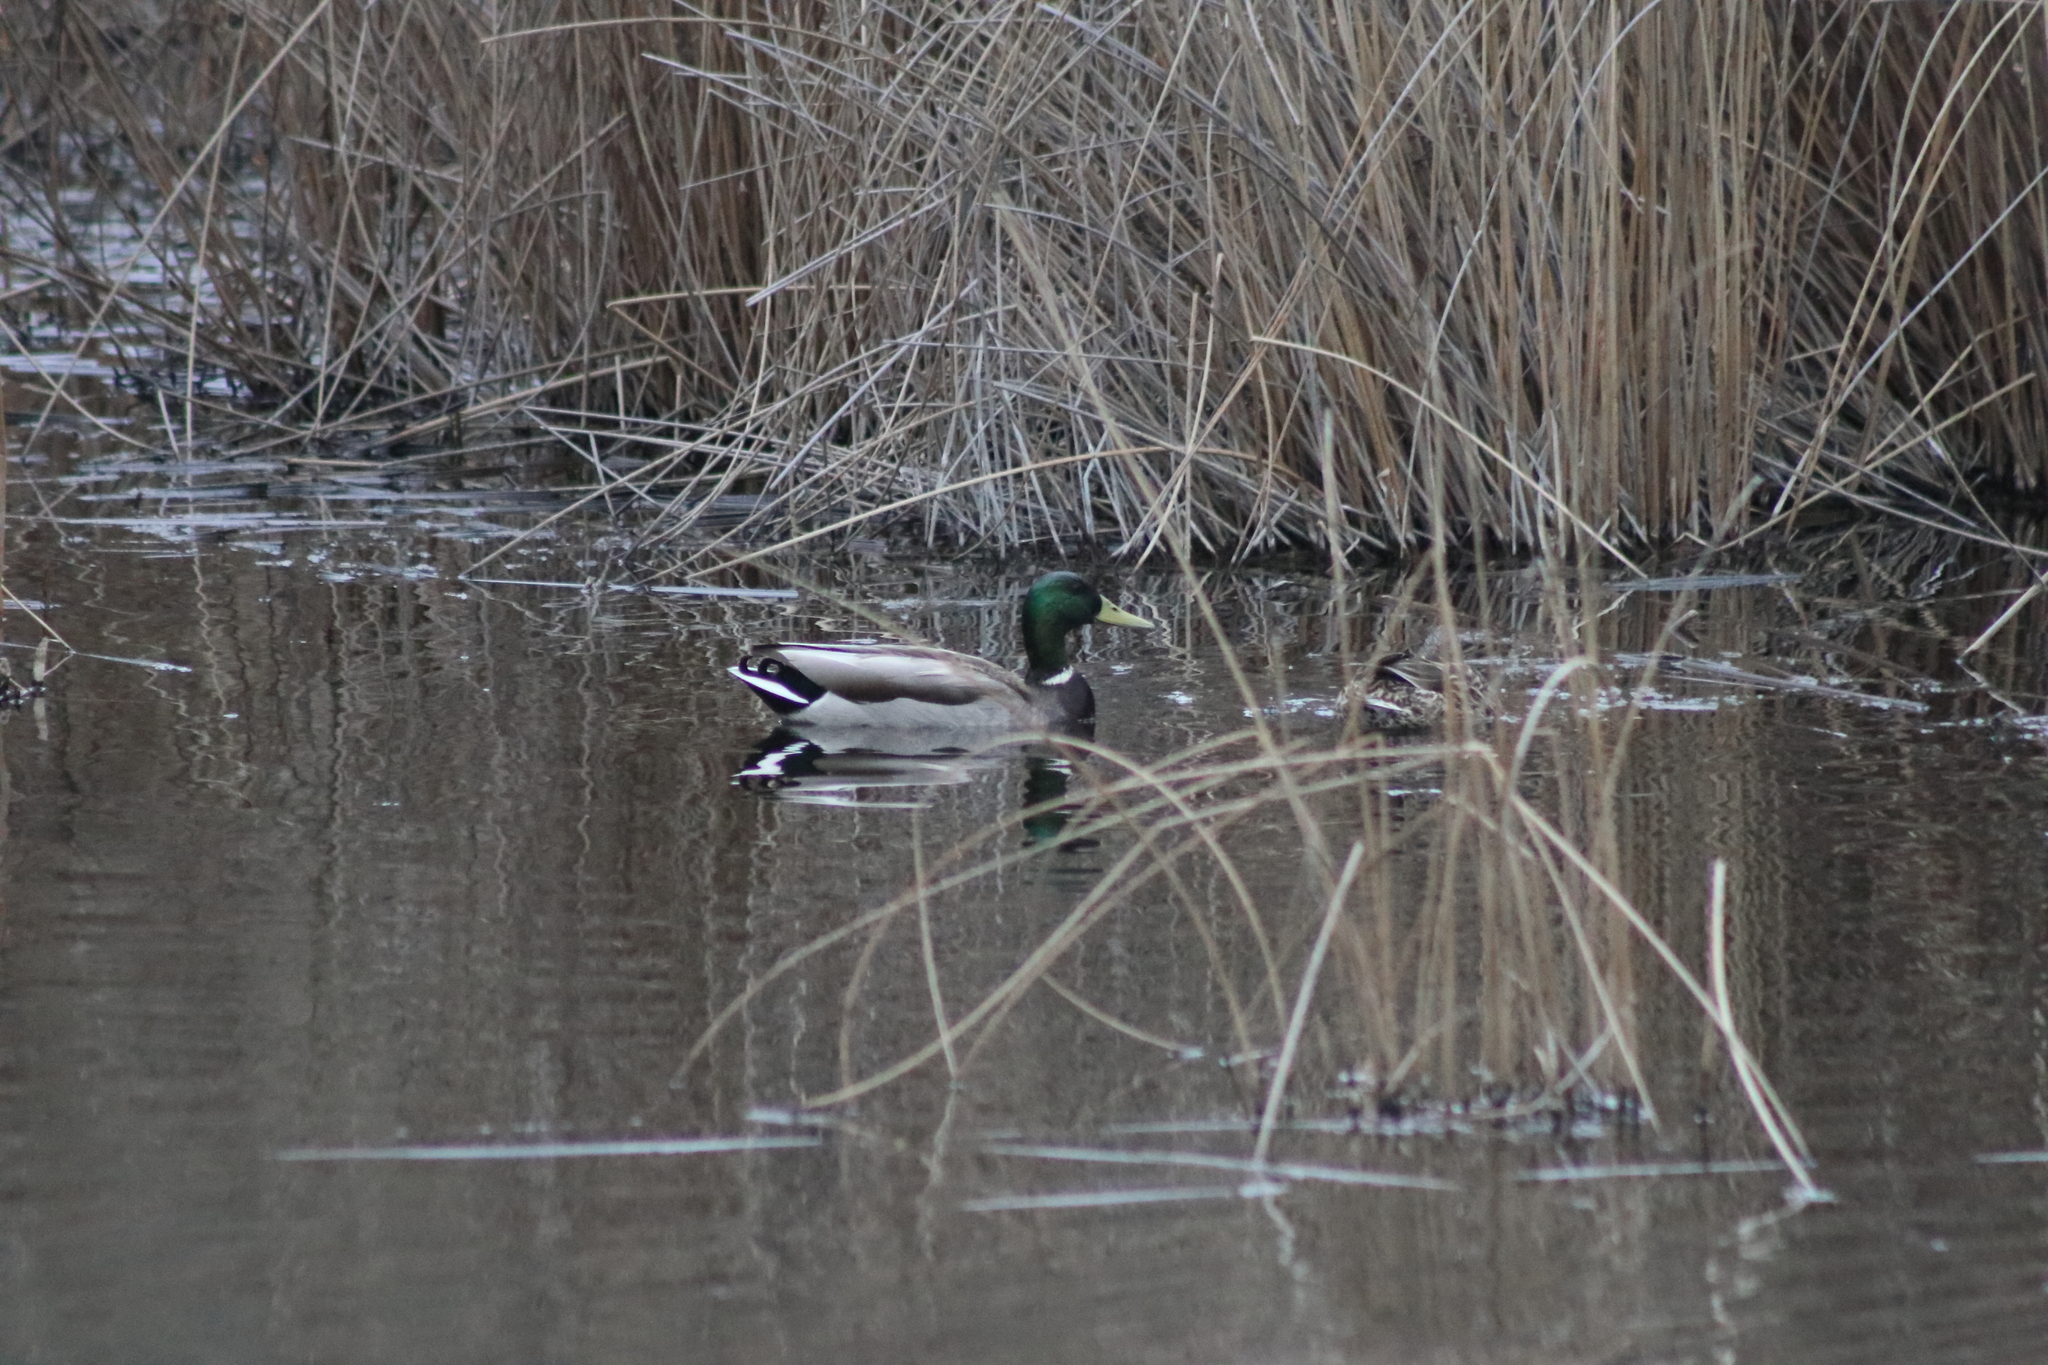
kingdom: Animalia
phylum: Chordata
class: Aves
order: Anseriformes
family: Anatidae
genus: Anas
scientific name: Anas platyrhynchos
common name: Mallard
